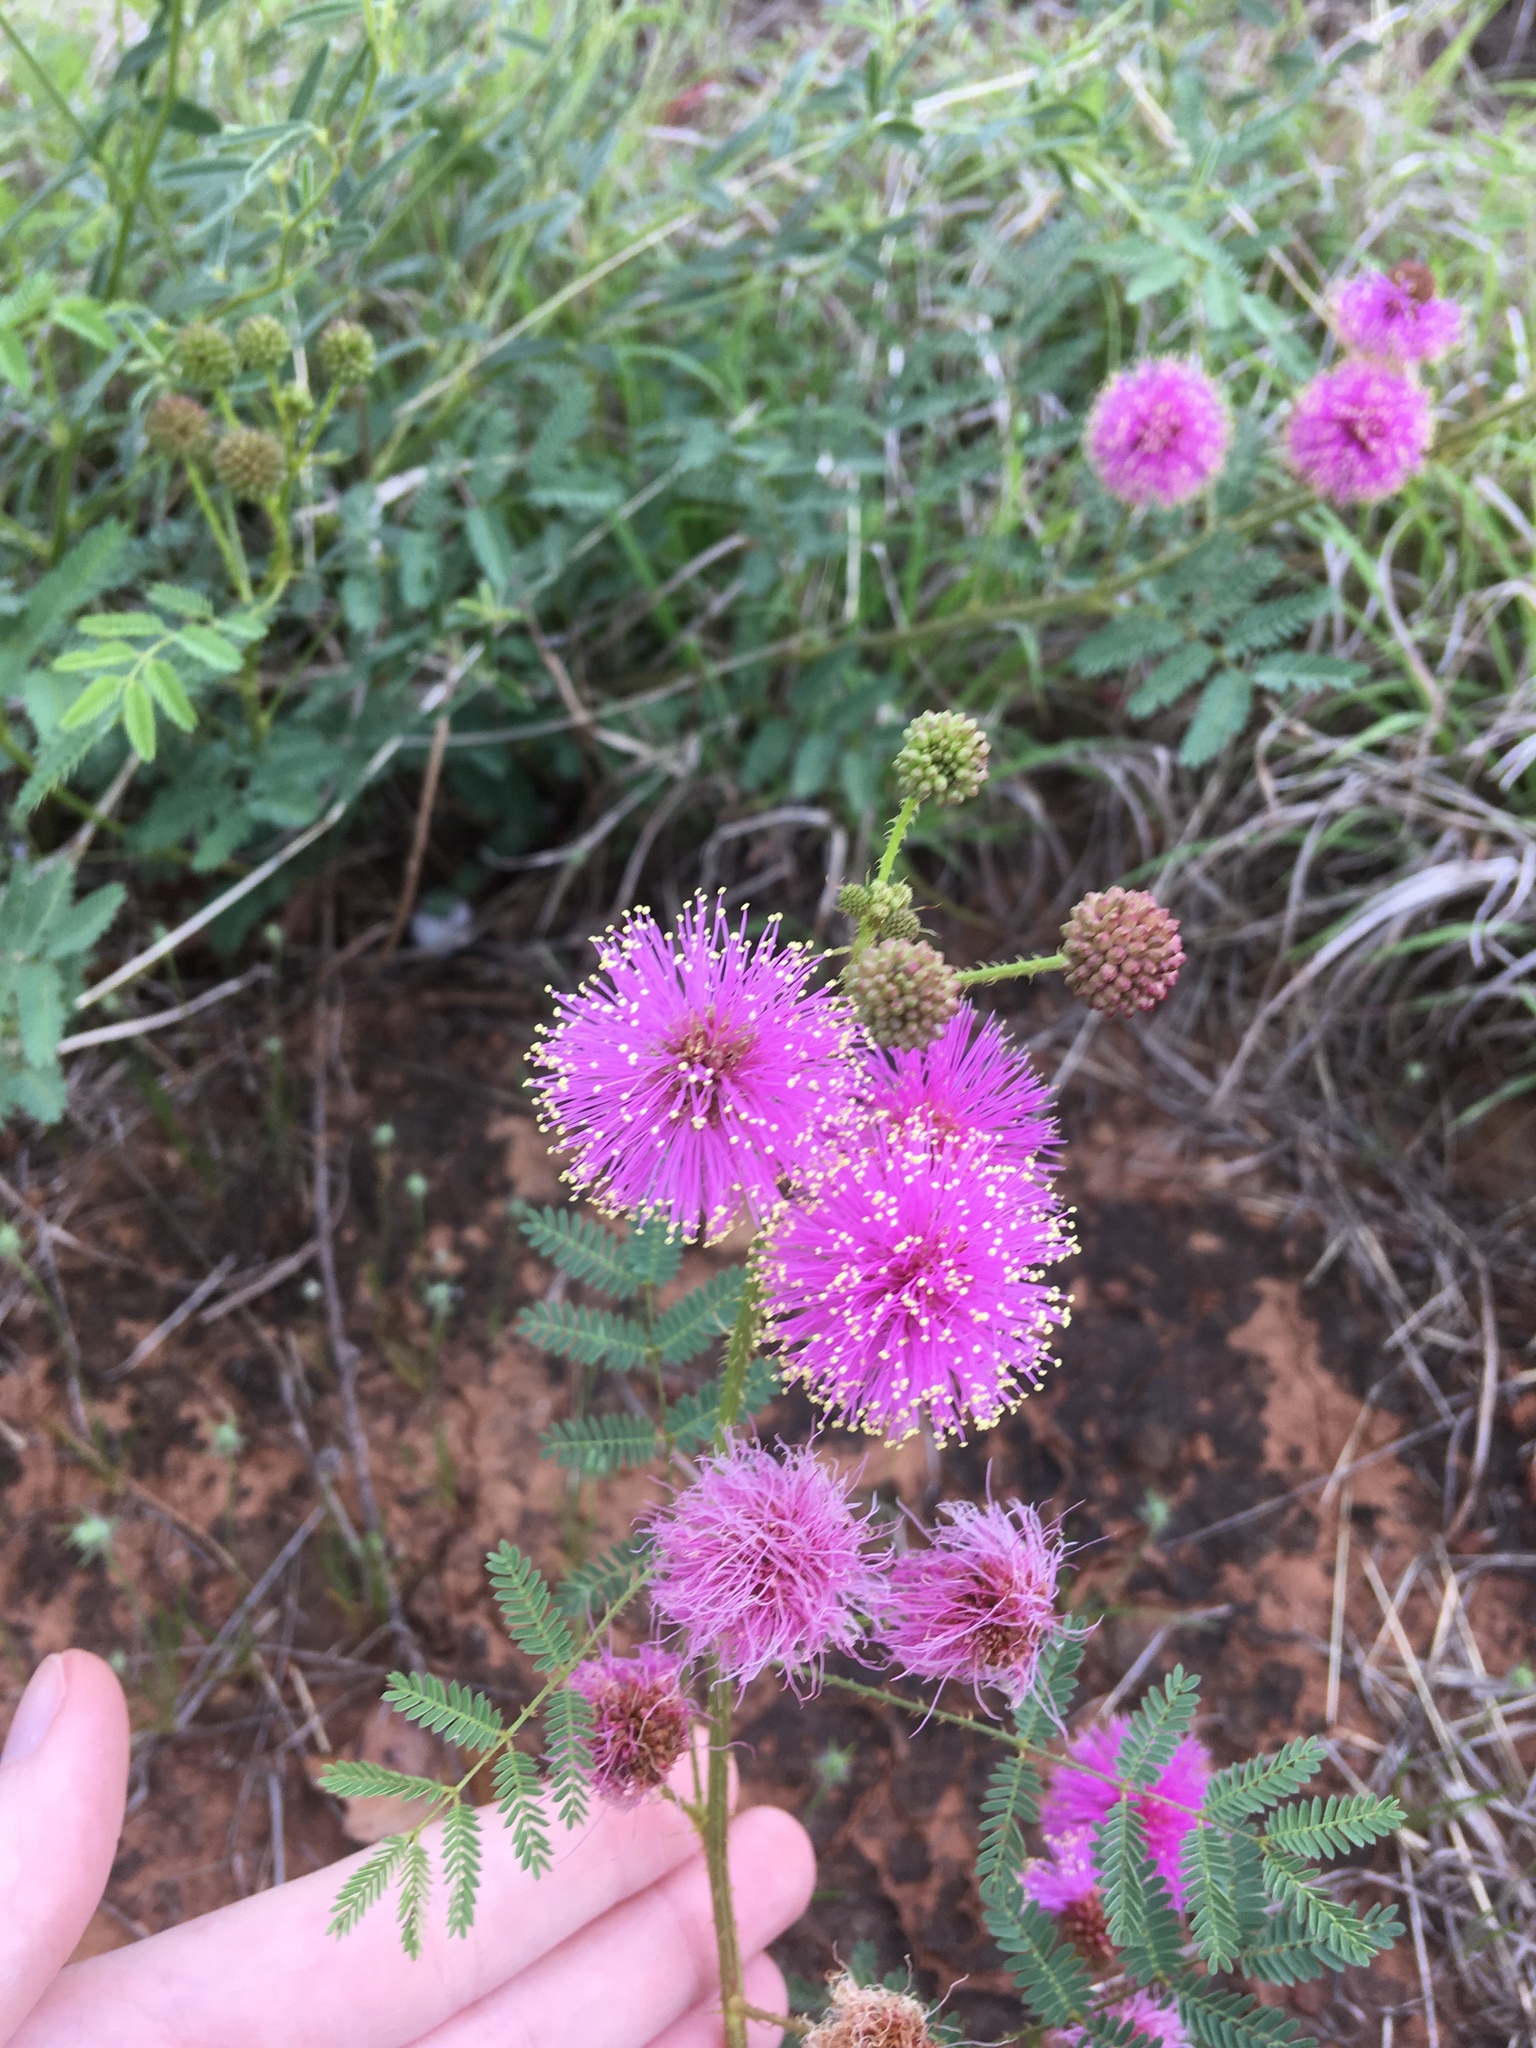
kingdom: Plantae
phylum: Tracheophyta
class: Magnoliopsida
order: Fabales
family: Fabaceae
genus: Mimosa
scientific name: Mimosa quadrivalvis
